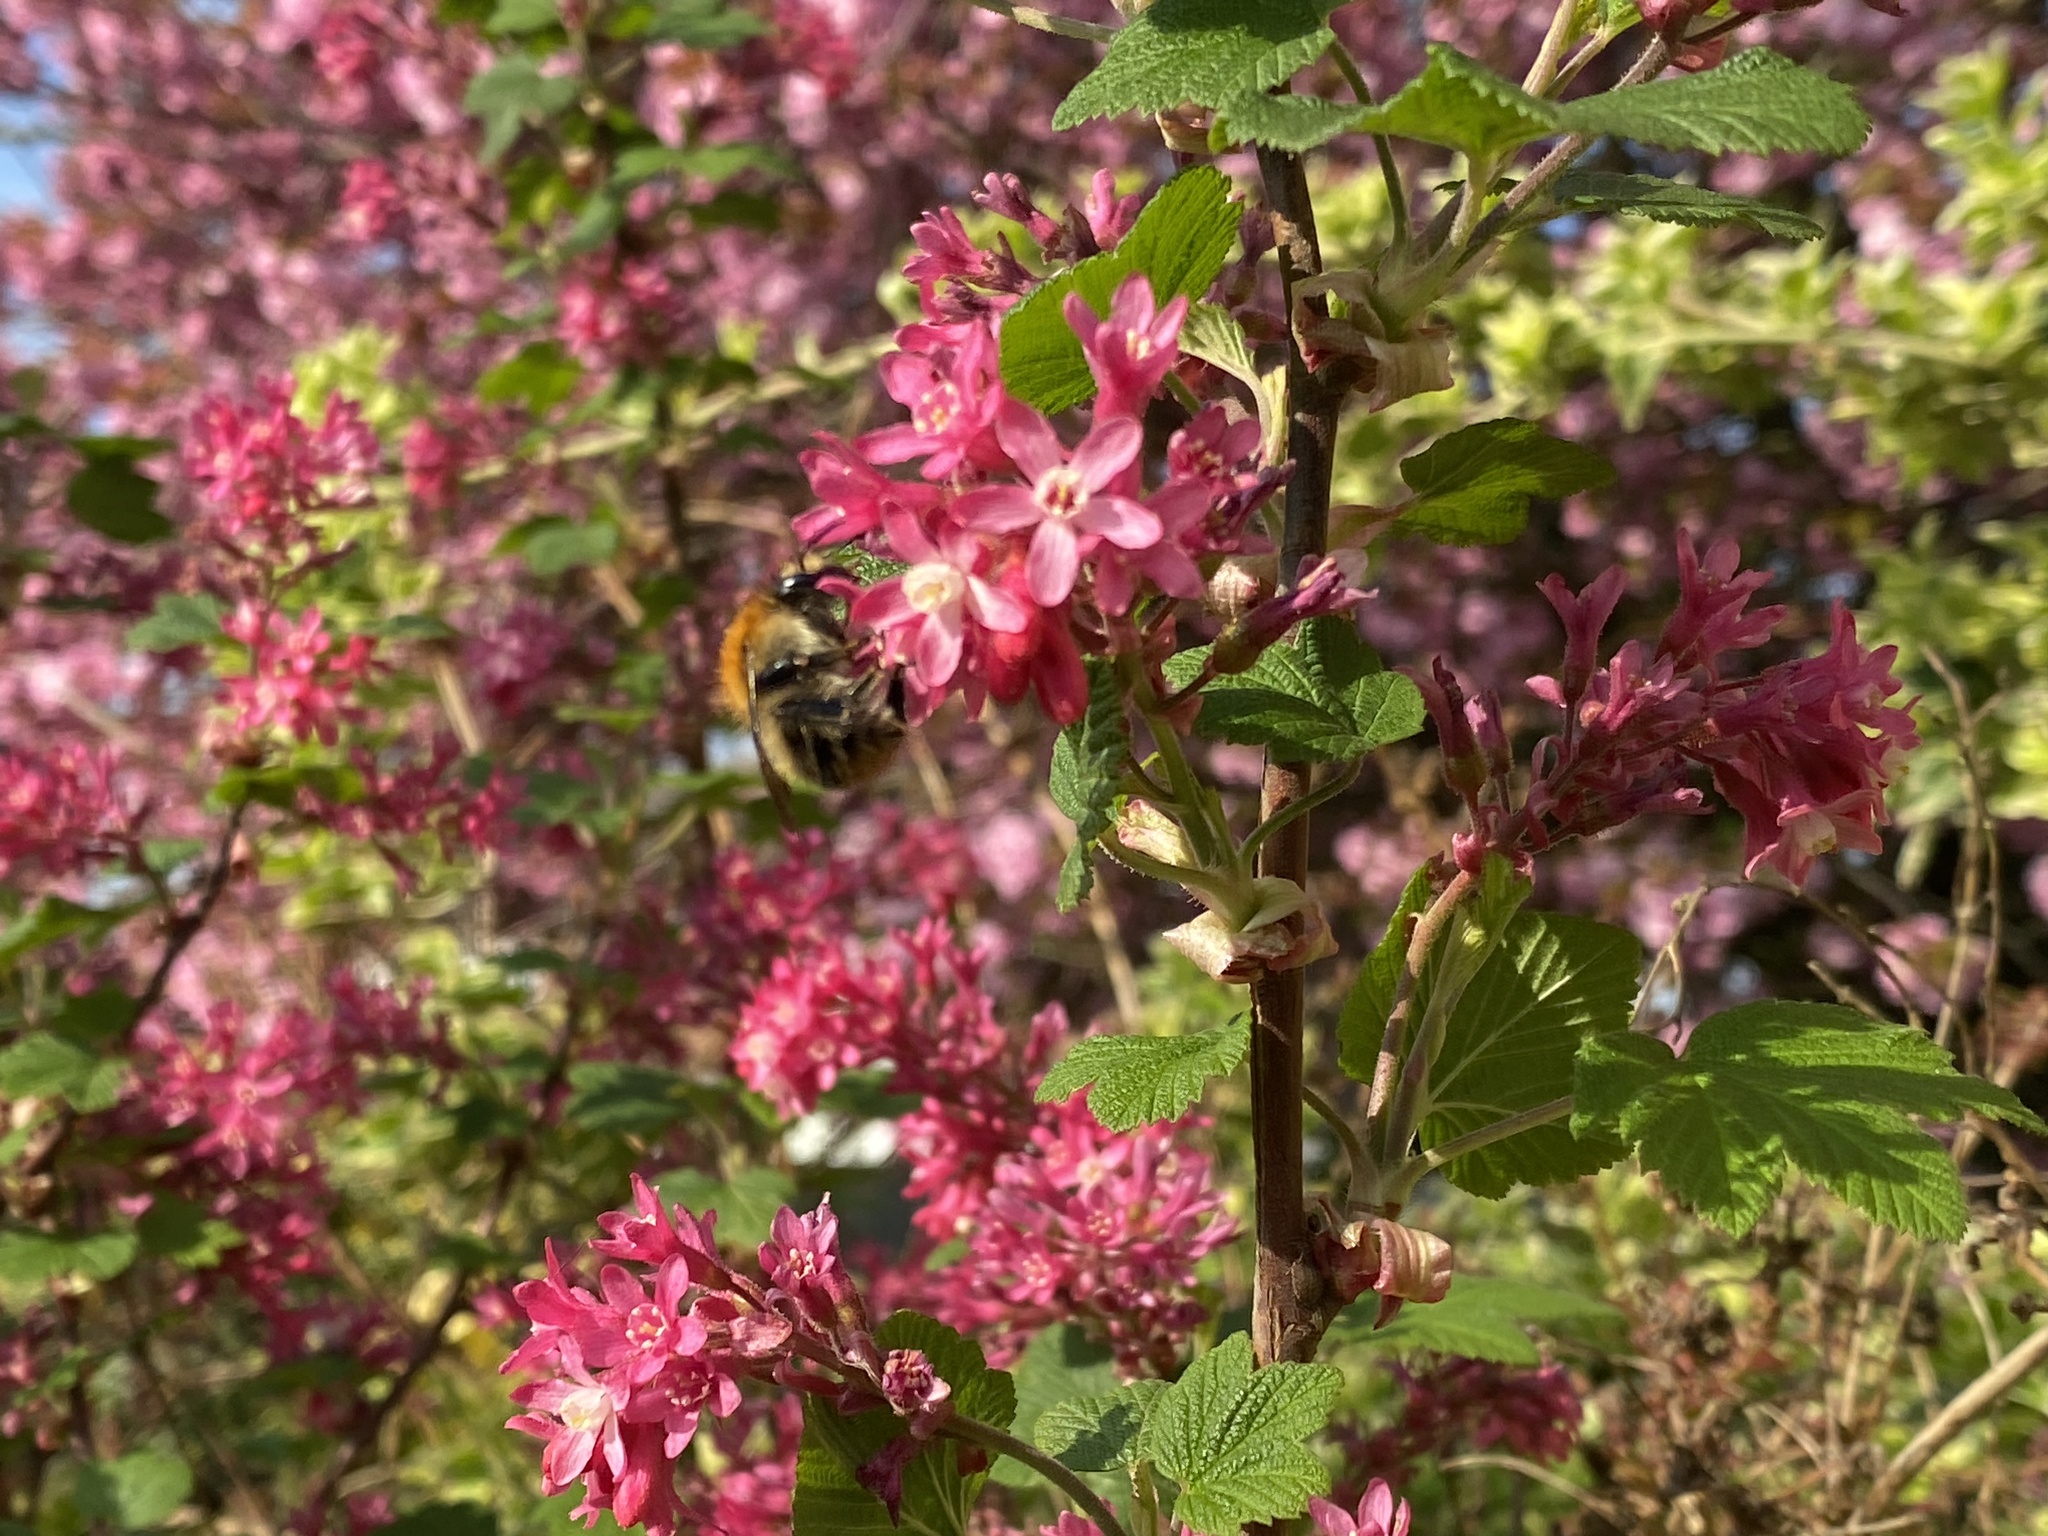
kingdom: Animalia
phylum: Arthropoda
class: Insecta
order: Hymenoptera
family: Apidae
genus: Bombus
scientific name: Bombus pascuorum
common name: Common carder bee
